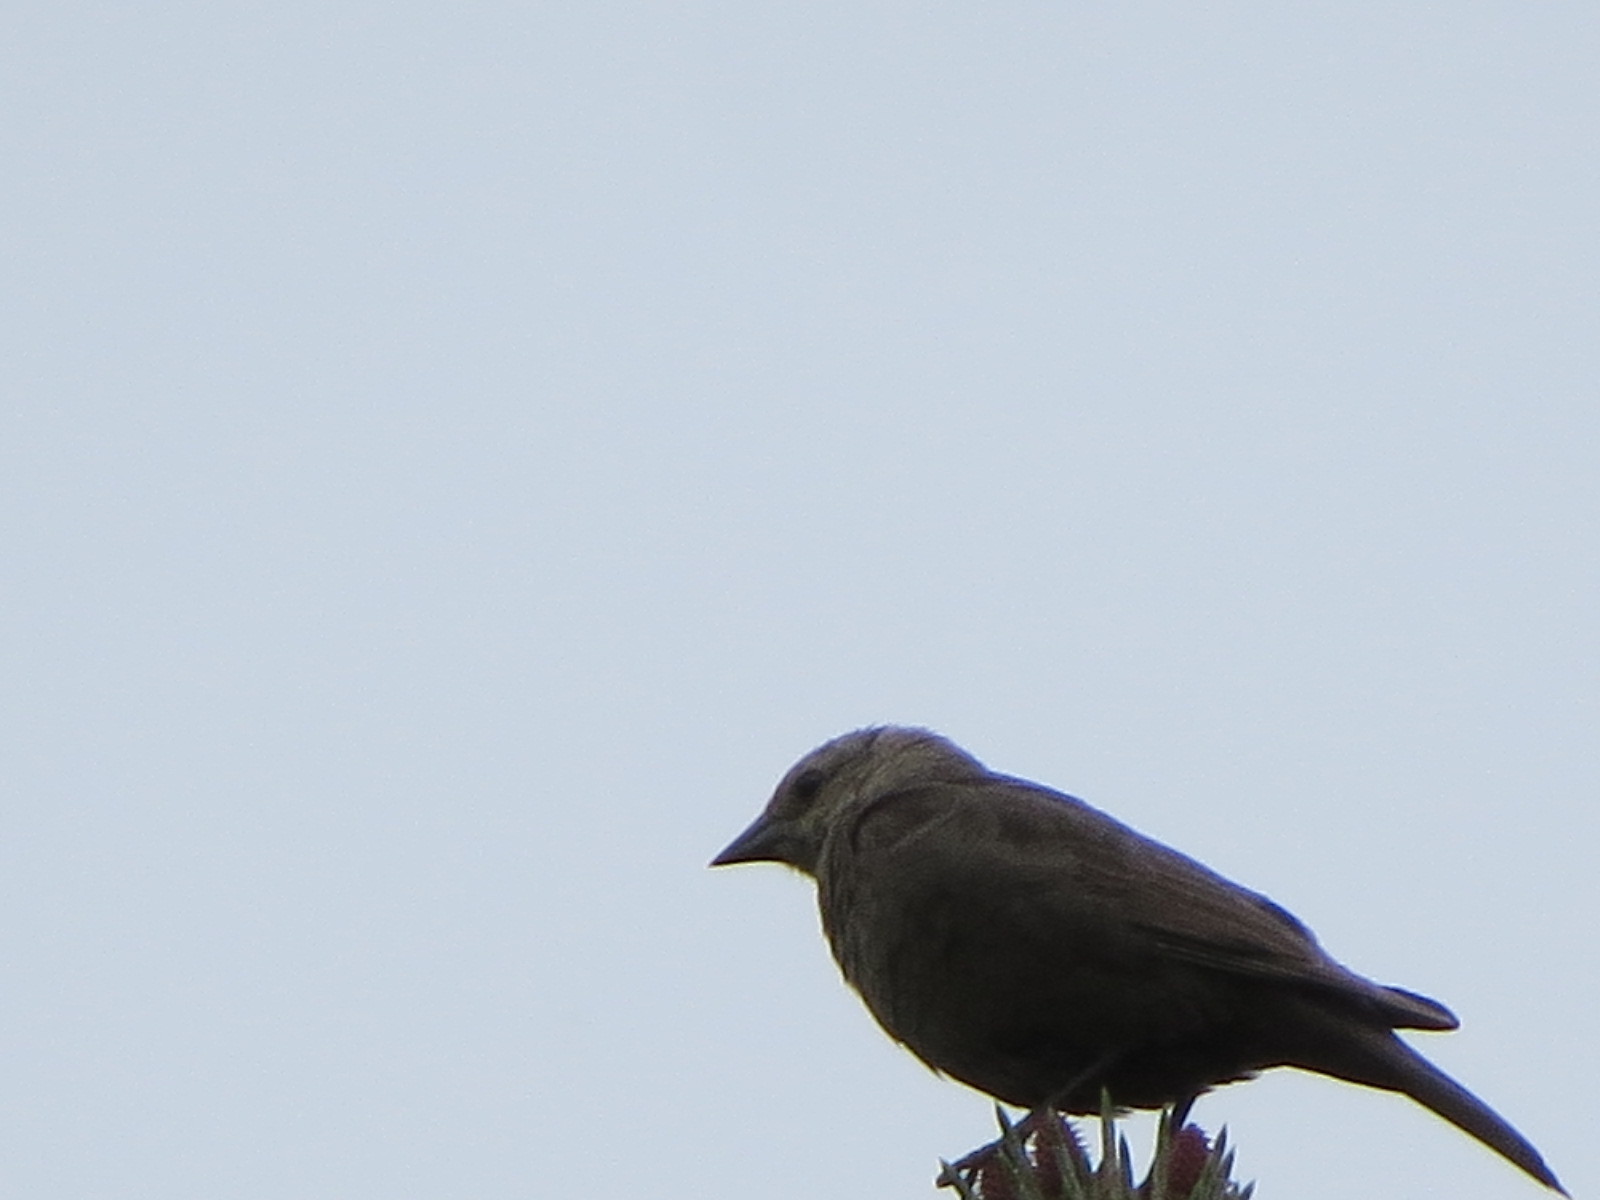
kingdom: Animalia
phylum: Chordata
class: Aves
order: Passeriformes
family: Icteridae
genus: Molothrus
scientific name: Molothrus ater
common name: Brown-headed cowbird
